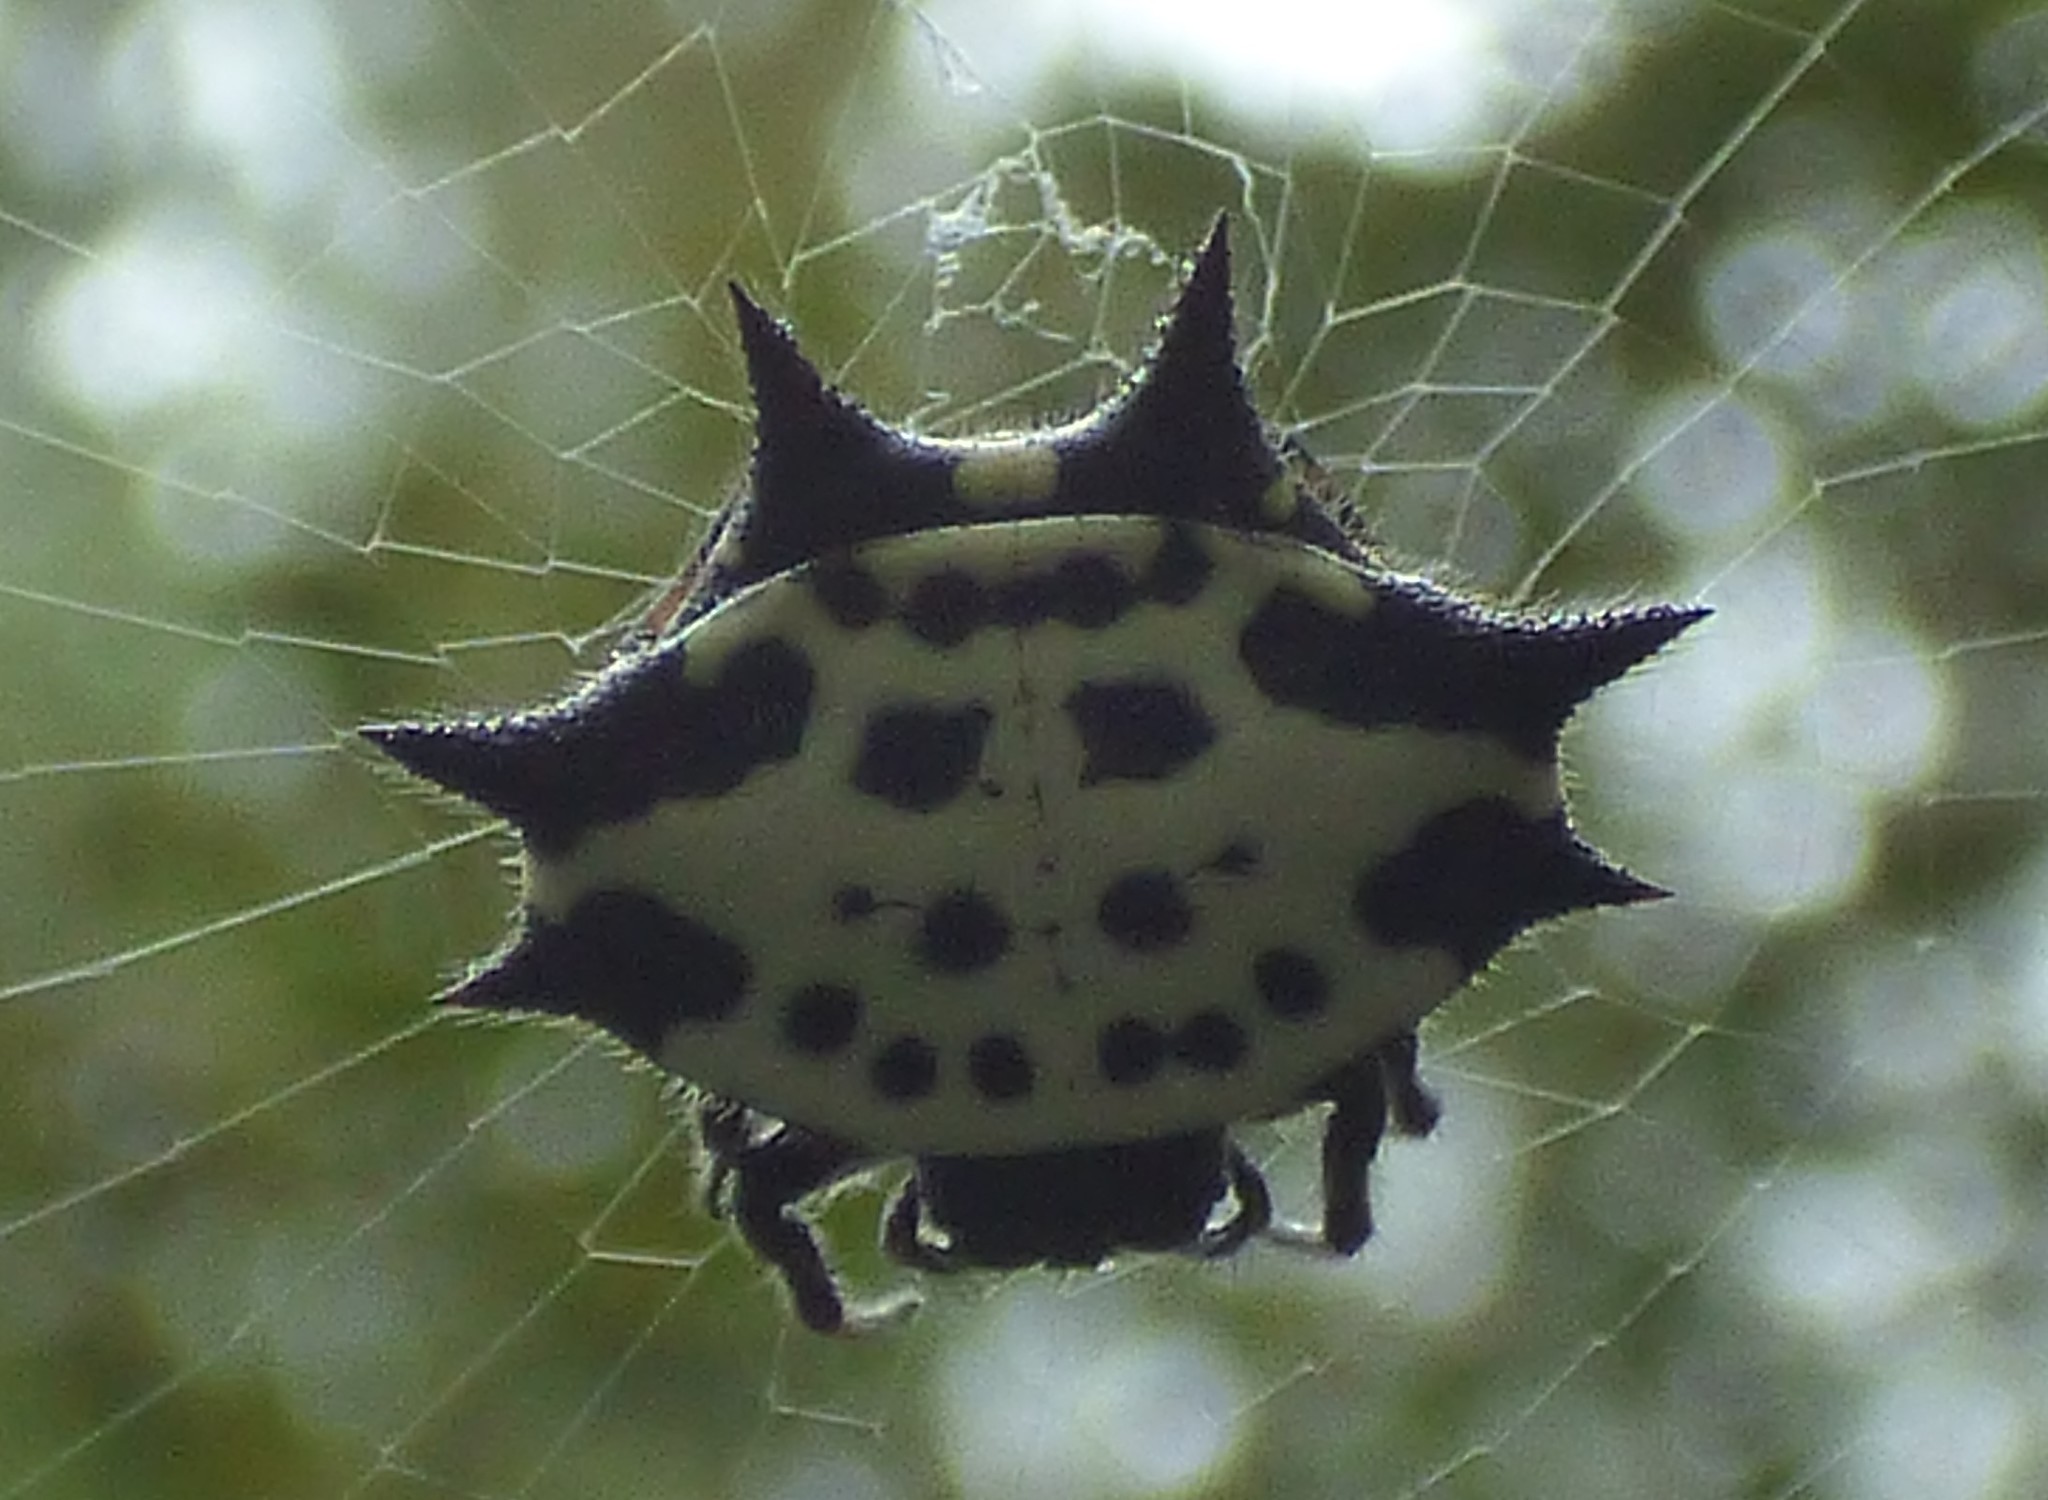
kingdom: Animalia
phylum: Arthropoda
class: Arachnida
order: Araneae
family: Araneidae
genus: Gasteracantha
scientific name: Gasteracantha cancriformis
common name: Orb weavers
